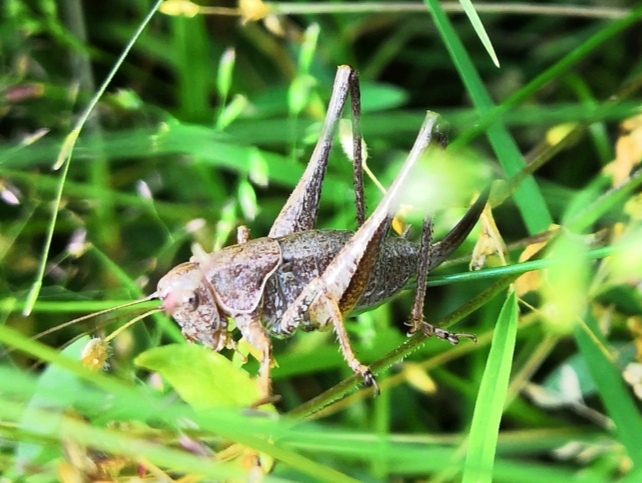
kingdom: Animalia
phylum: Arthropoda
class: Insecta
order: Orthoptera
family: Tettigoniidae
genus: Pholidoptera
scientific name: Pholidoptera griseoaptera
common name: Dark bush-cricket
